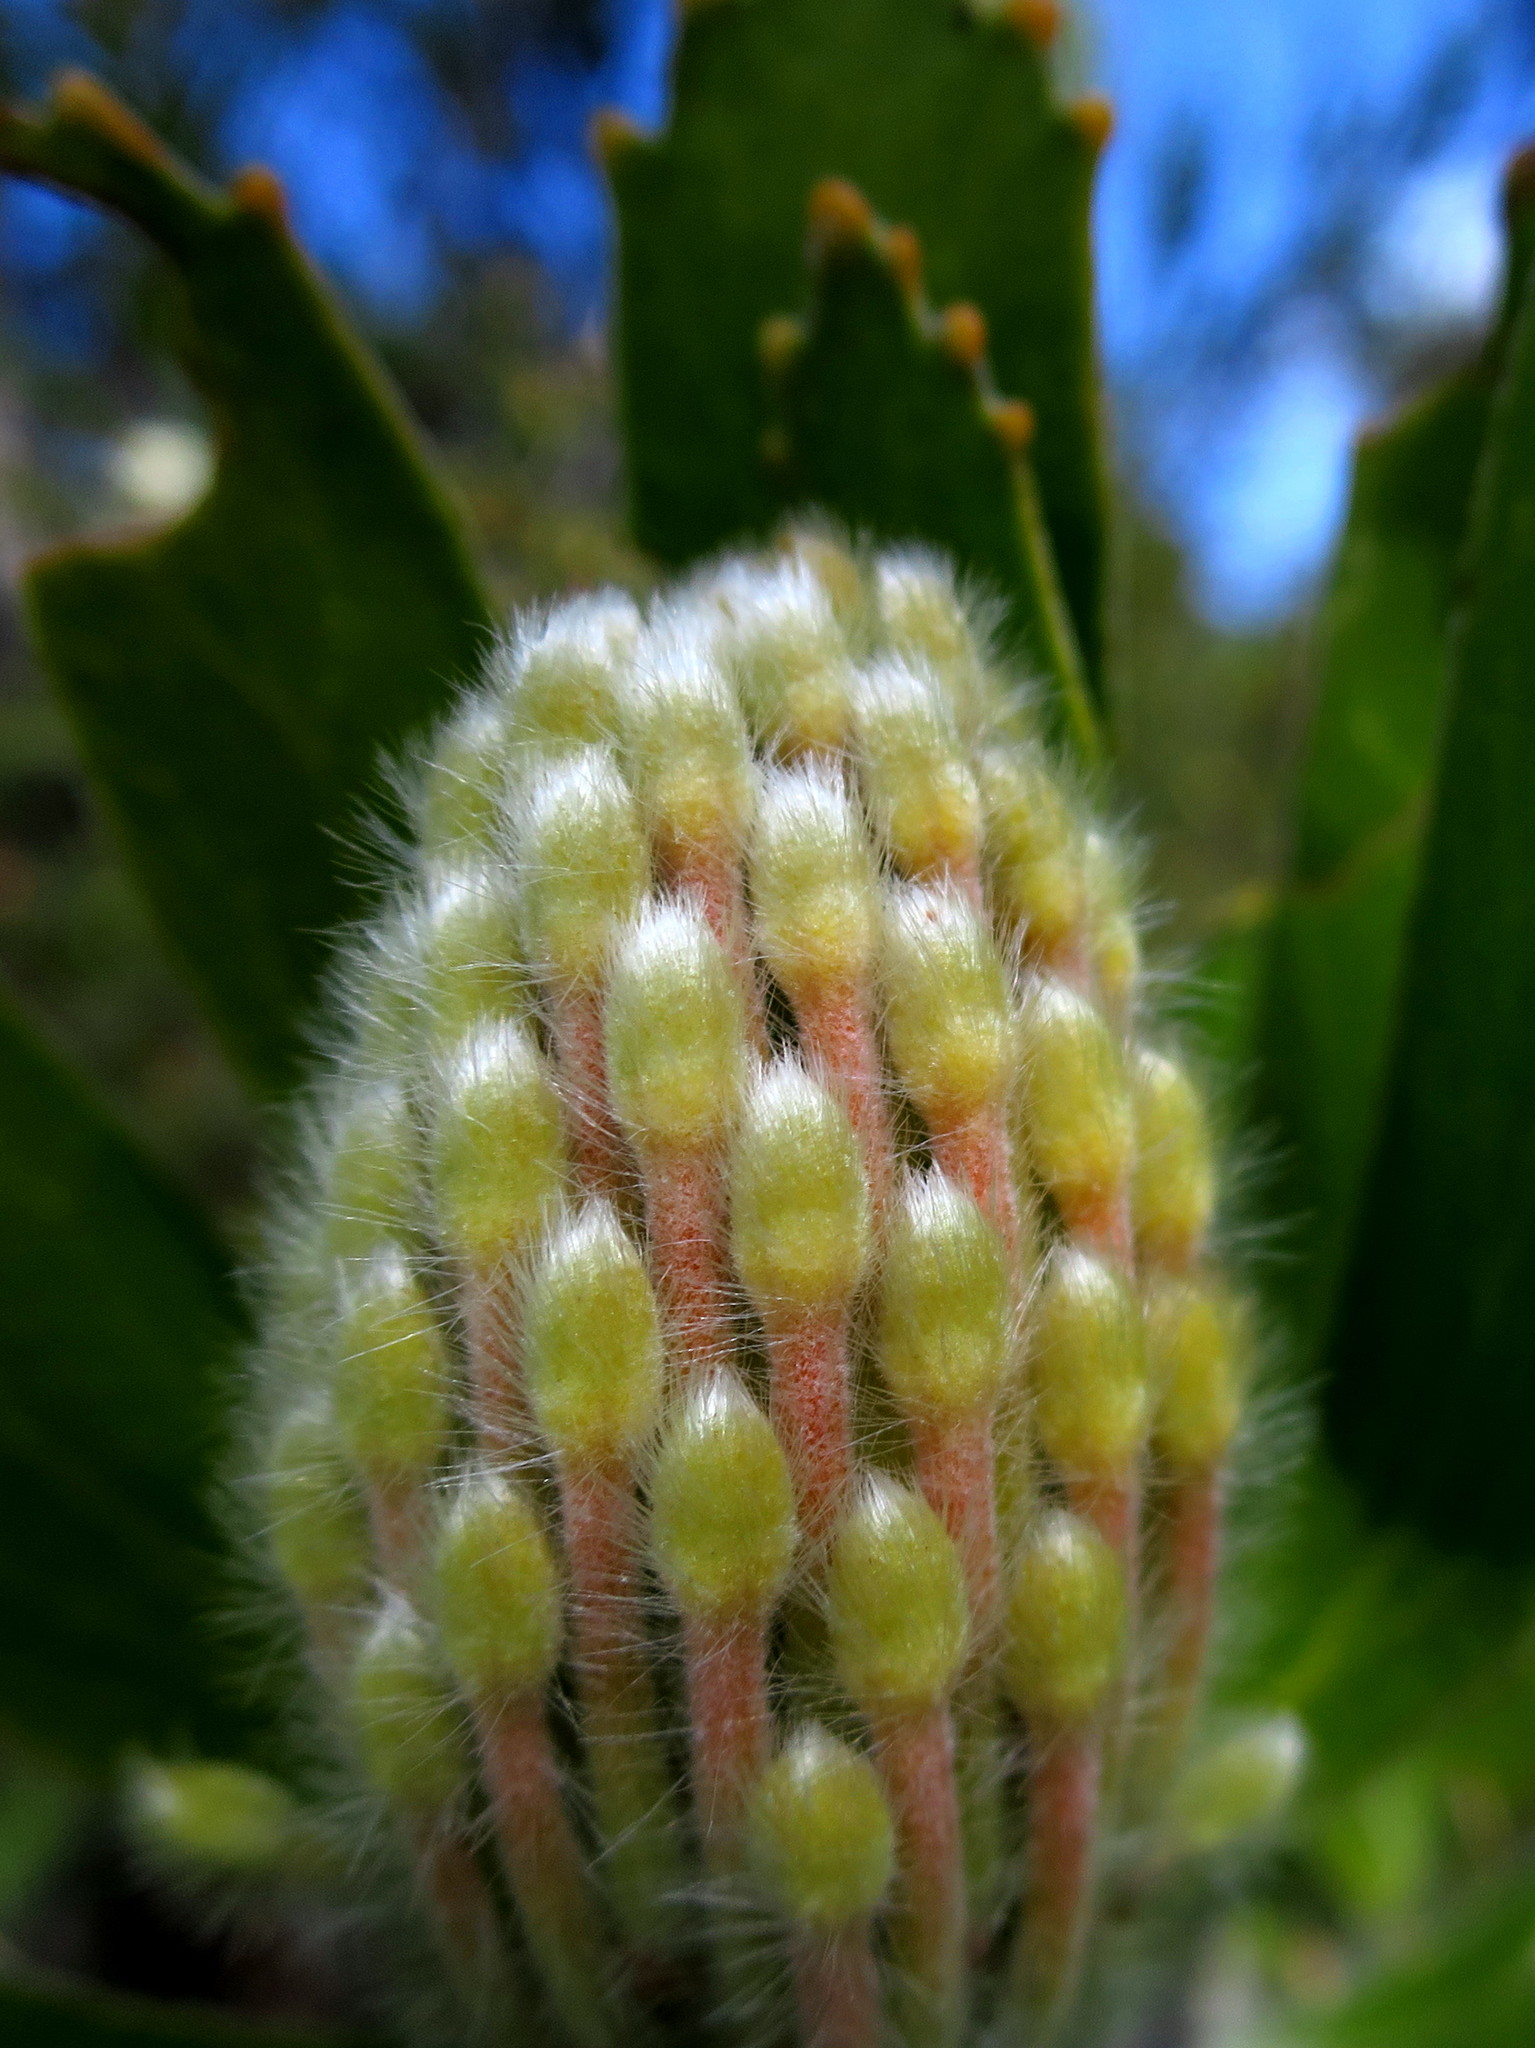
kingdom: Plantae
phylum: Tracheophyta
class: Magnoliopsida
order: Proteales
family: Proteaceae
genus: Leucospermum
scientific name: Leucospermum cuneiforme
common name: Common pincushion
